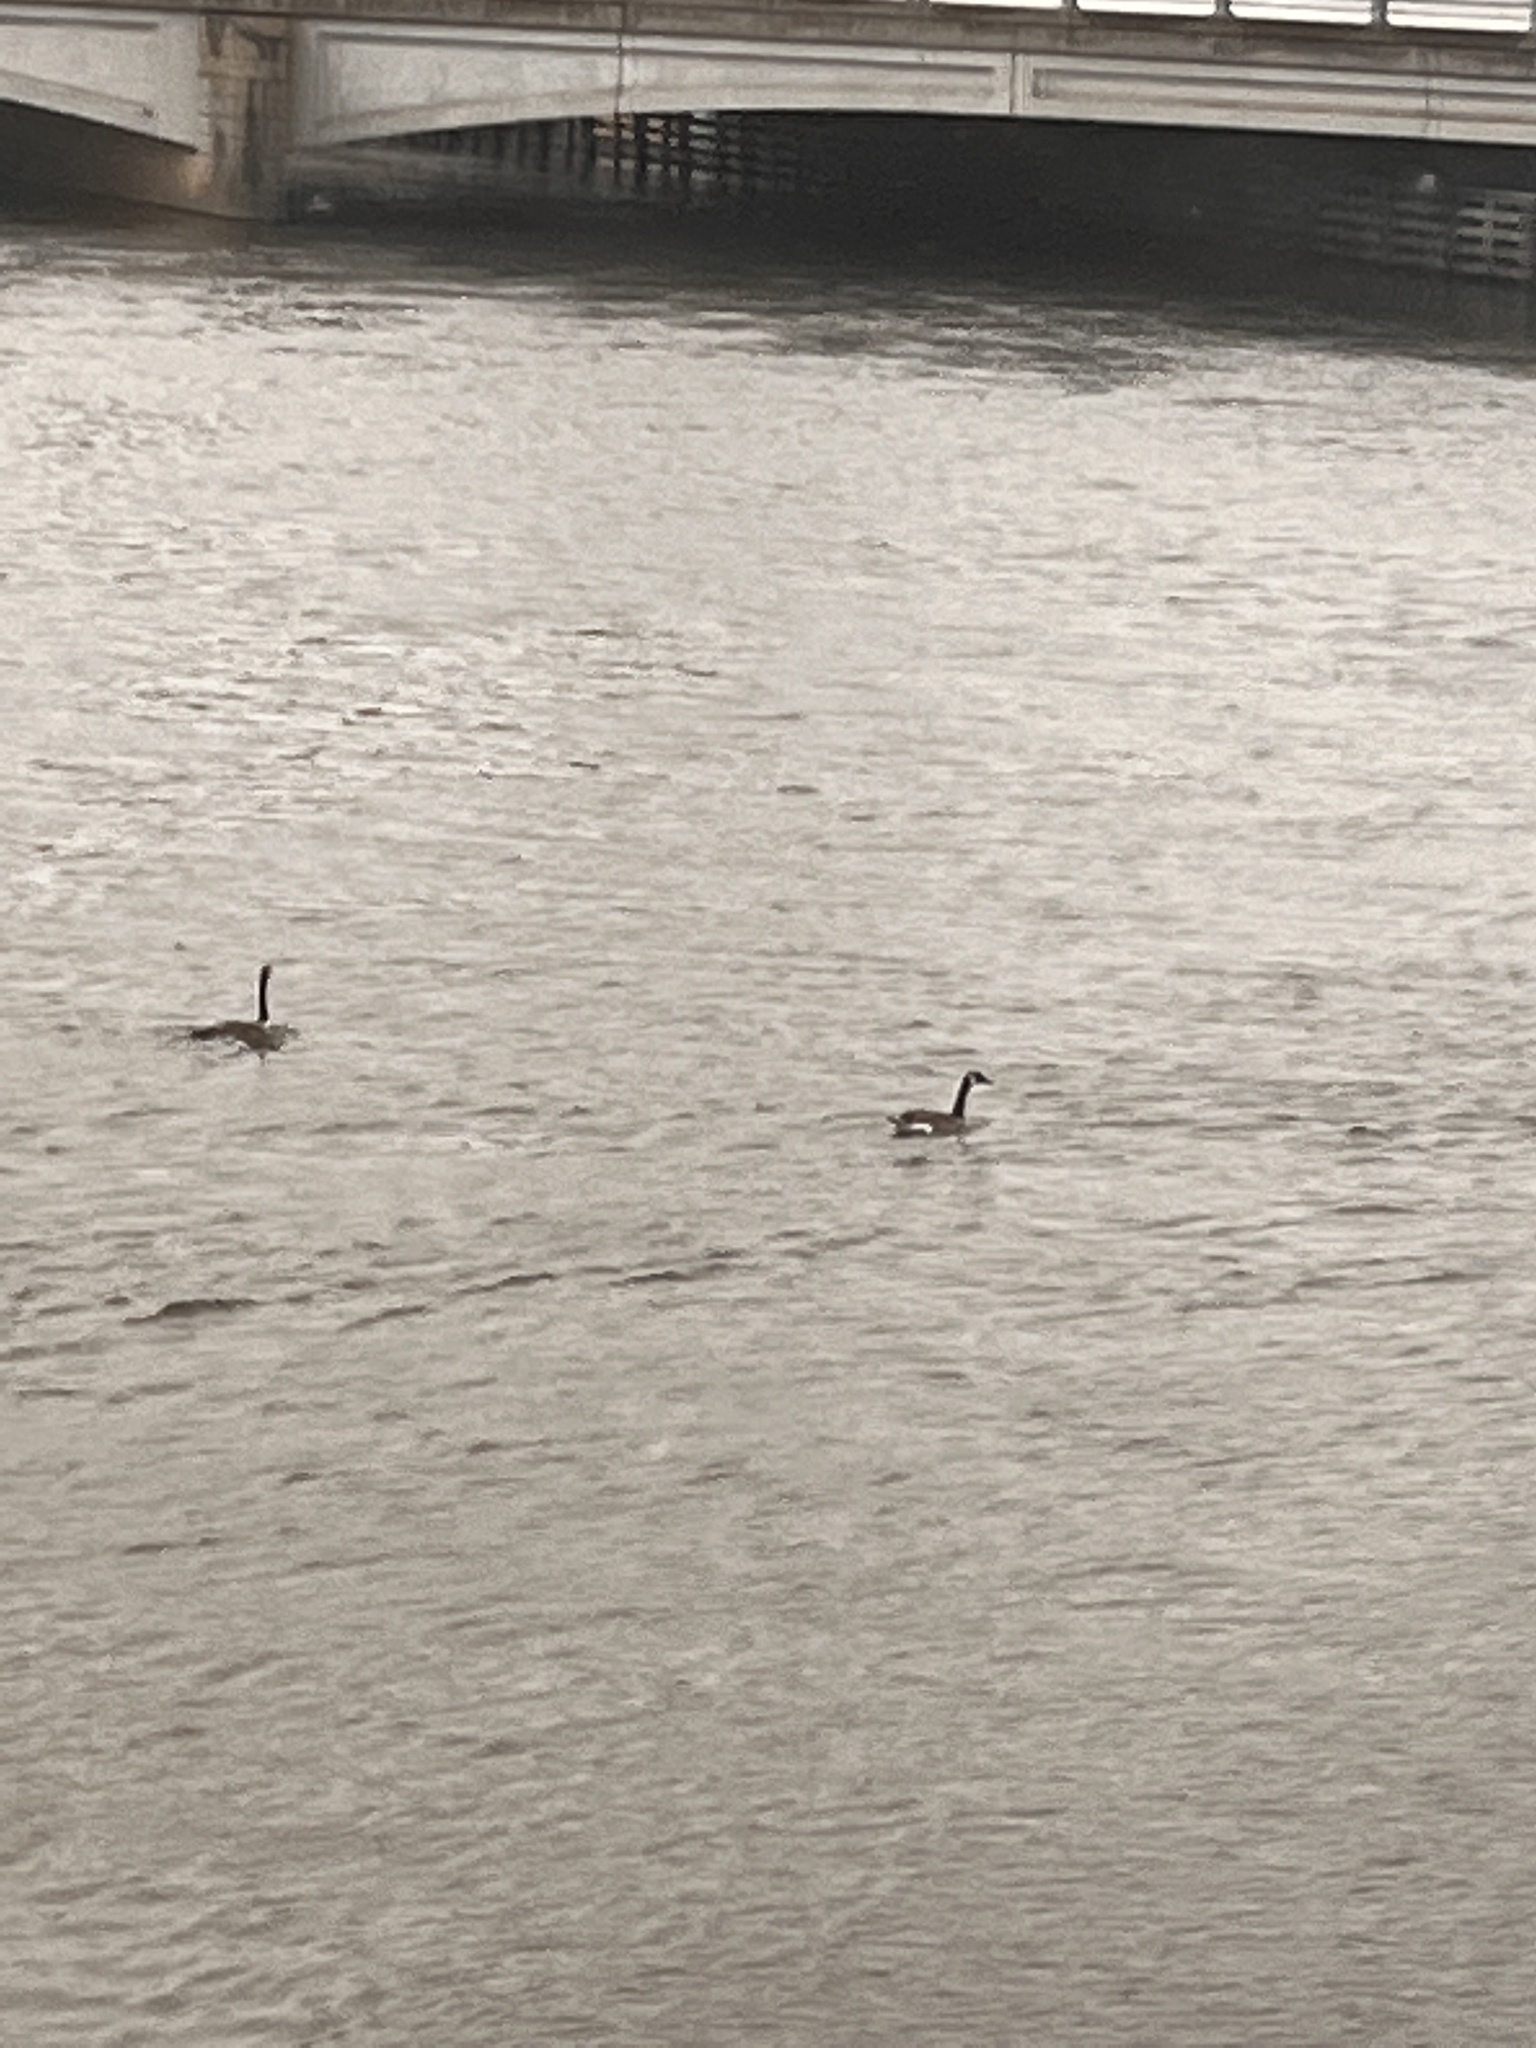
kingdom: Animalia
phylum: Chordata
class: Aves
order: Anseriformes
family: Anatidae
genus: Branta
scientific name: Branta canadensis
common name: Canada goose
